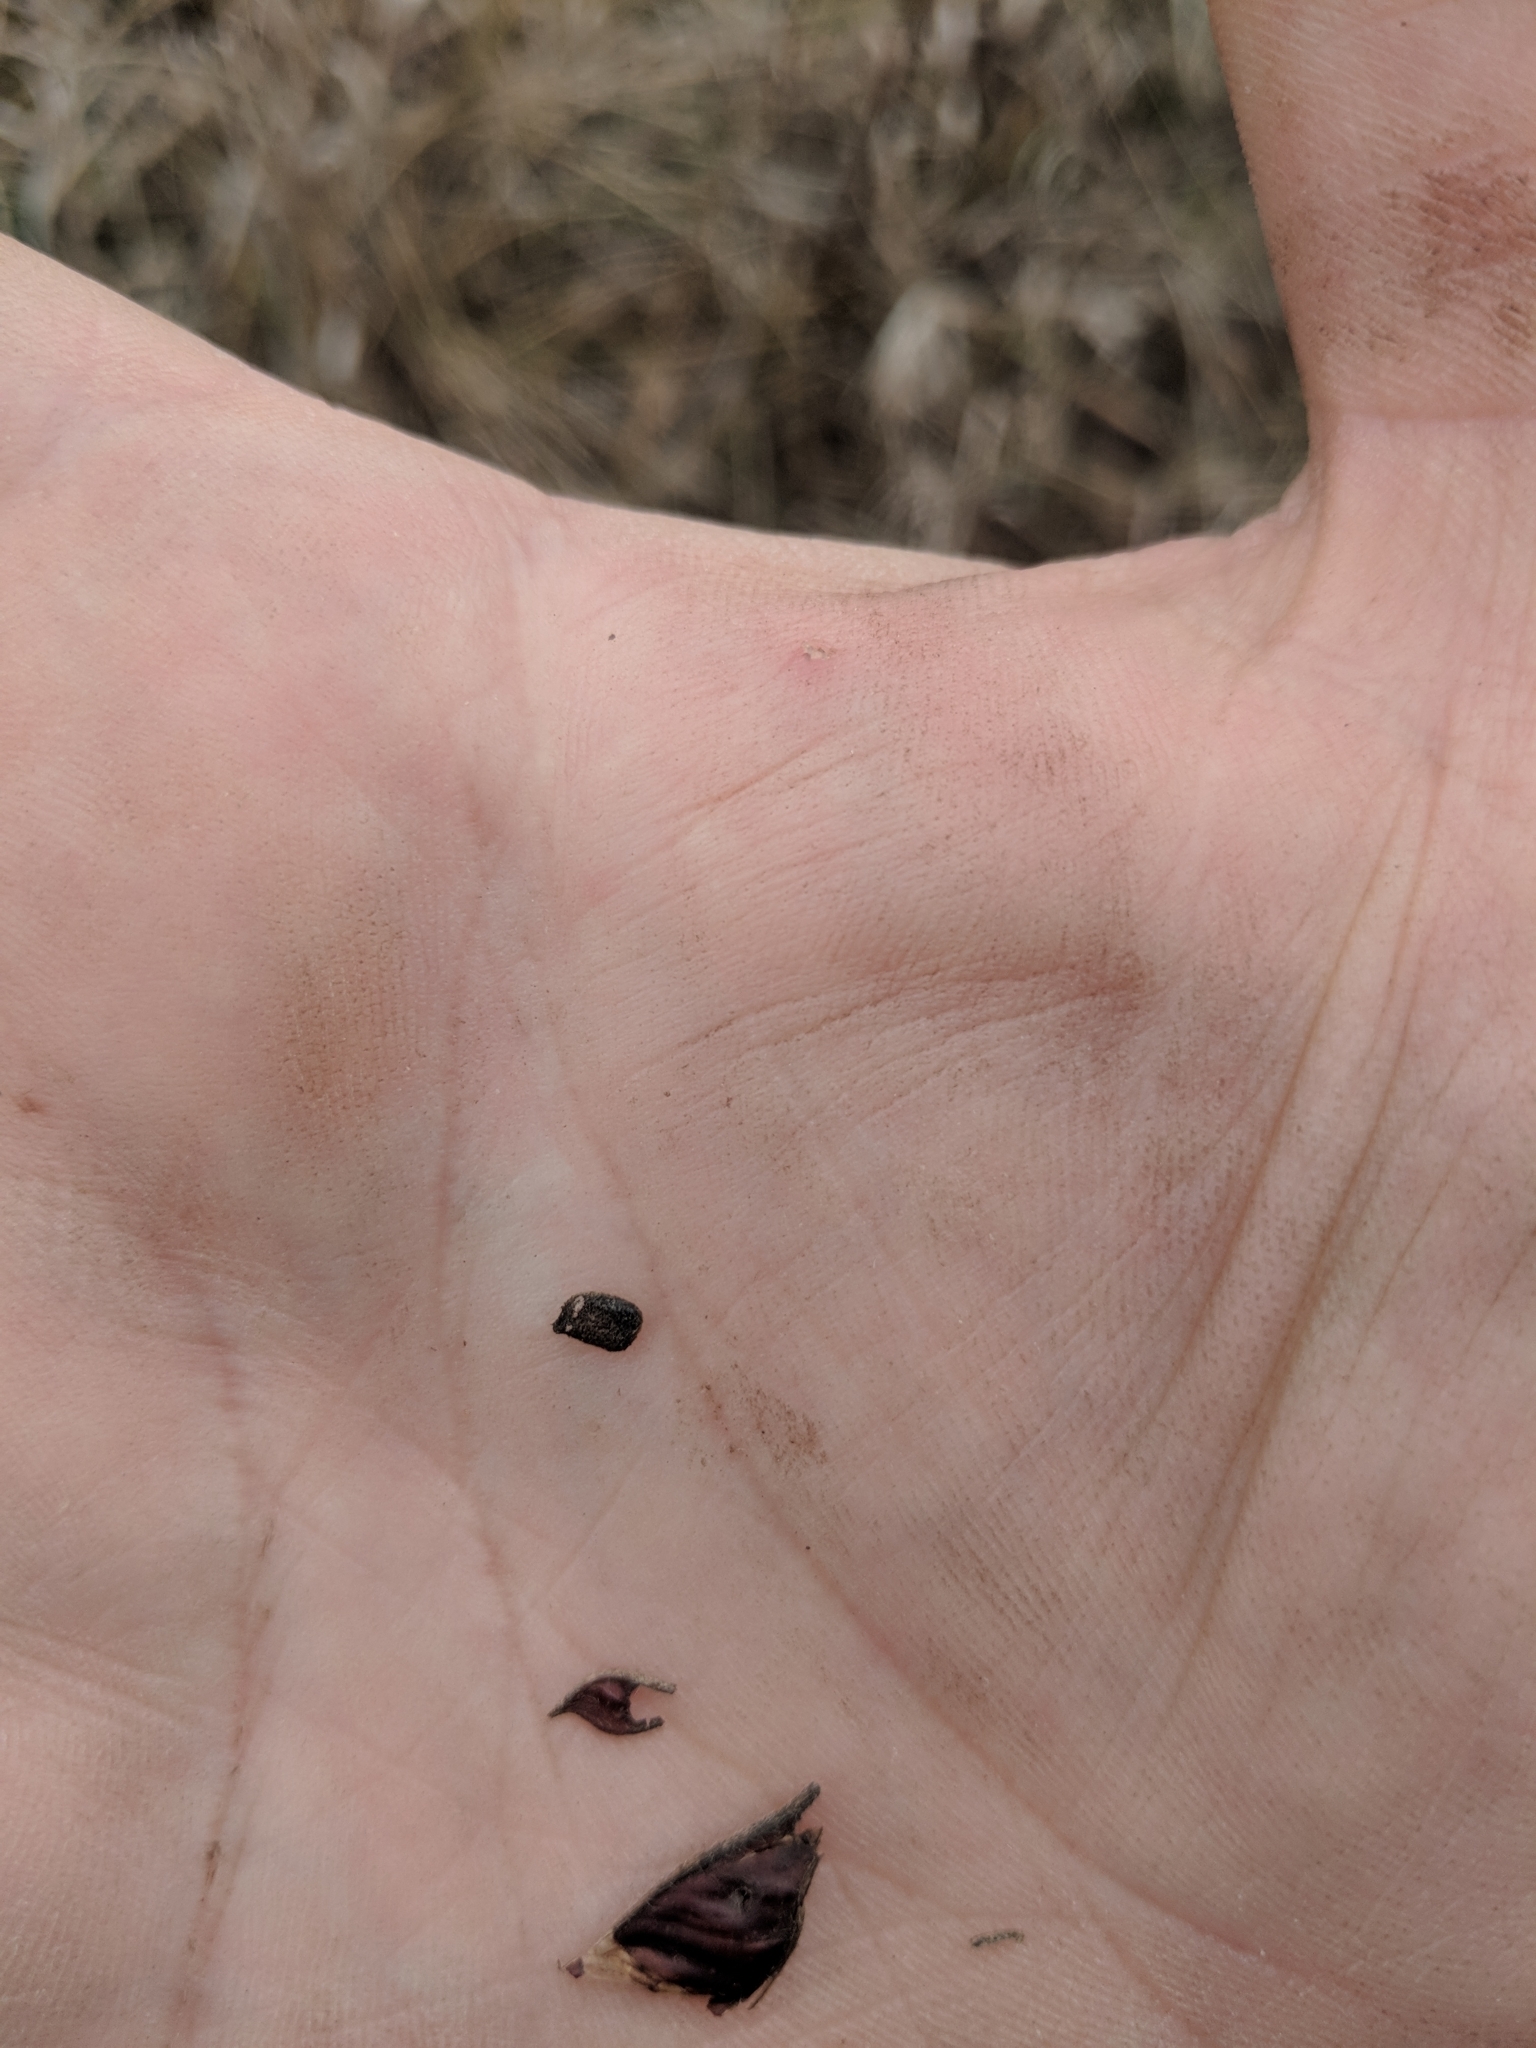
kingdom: Plantae
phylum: Tracheophyta
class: Magnoliopsida
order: Fabales
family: Fabaceae
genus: Chamaecrista
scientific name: Chamaecrista fasciculata
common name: Golden cassia
